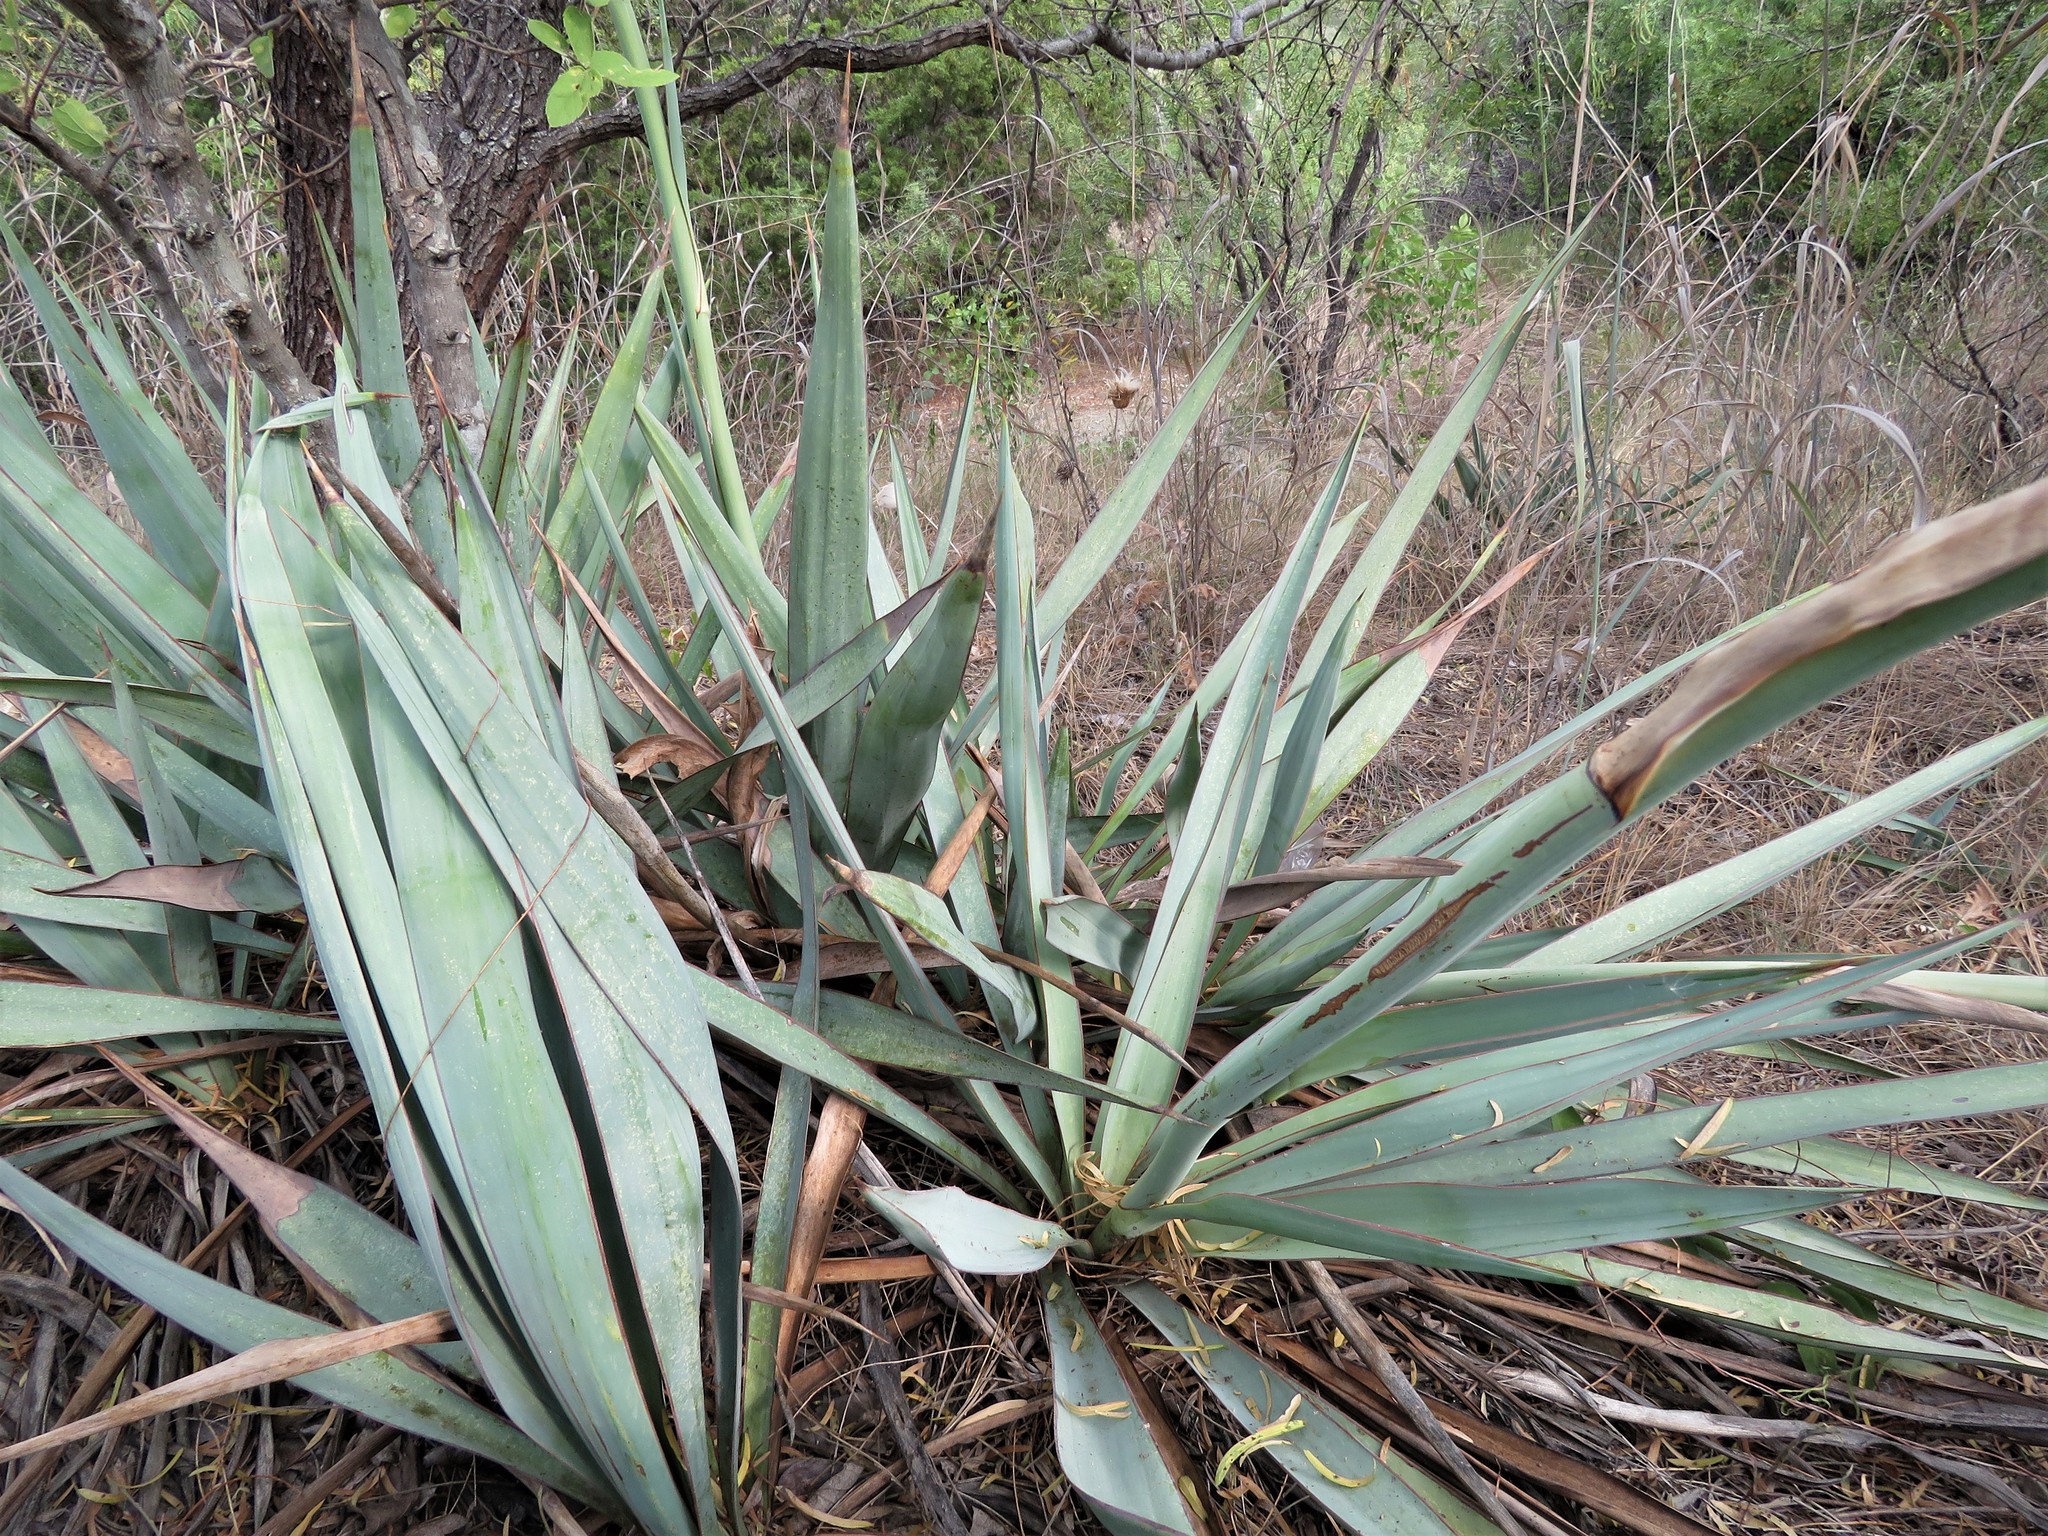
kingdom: Plantae
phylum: Tracheophyta
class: Liliopsida
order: Asparagales
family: Asparagaceae
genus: Yucca
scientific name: Yucca pallida
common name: Pale leaf yucca
